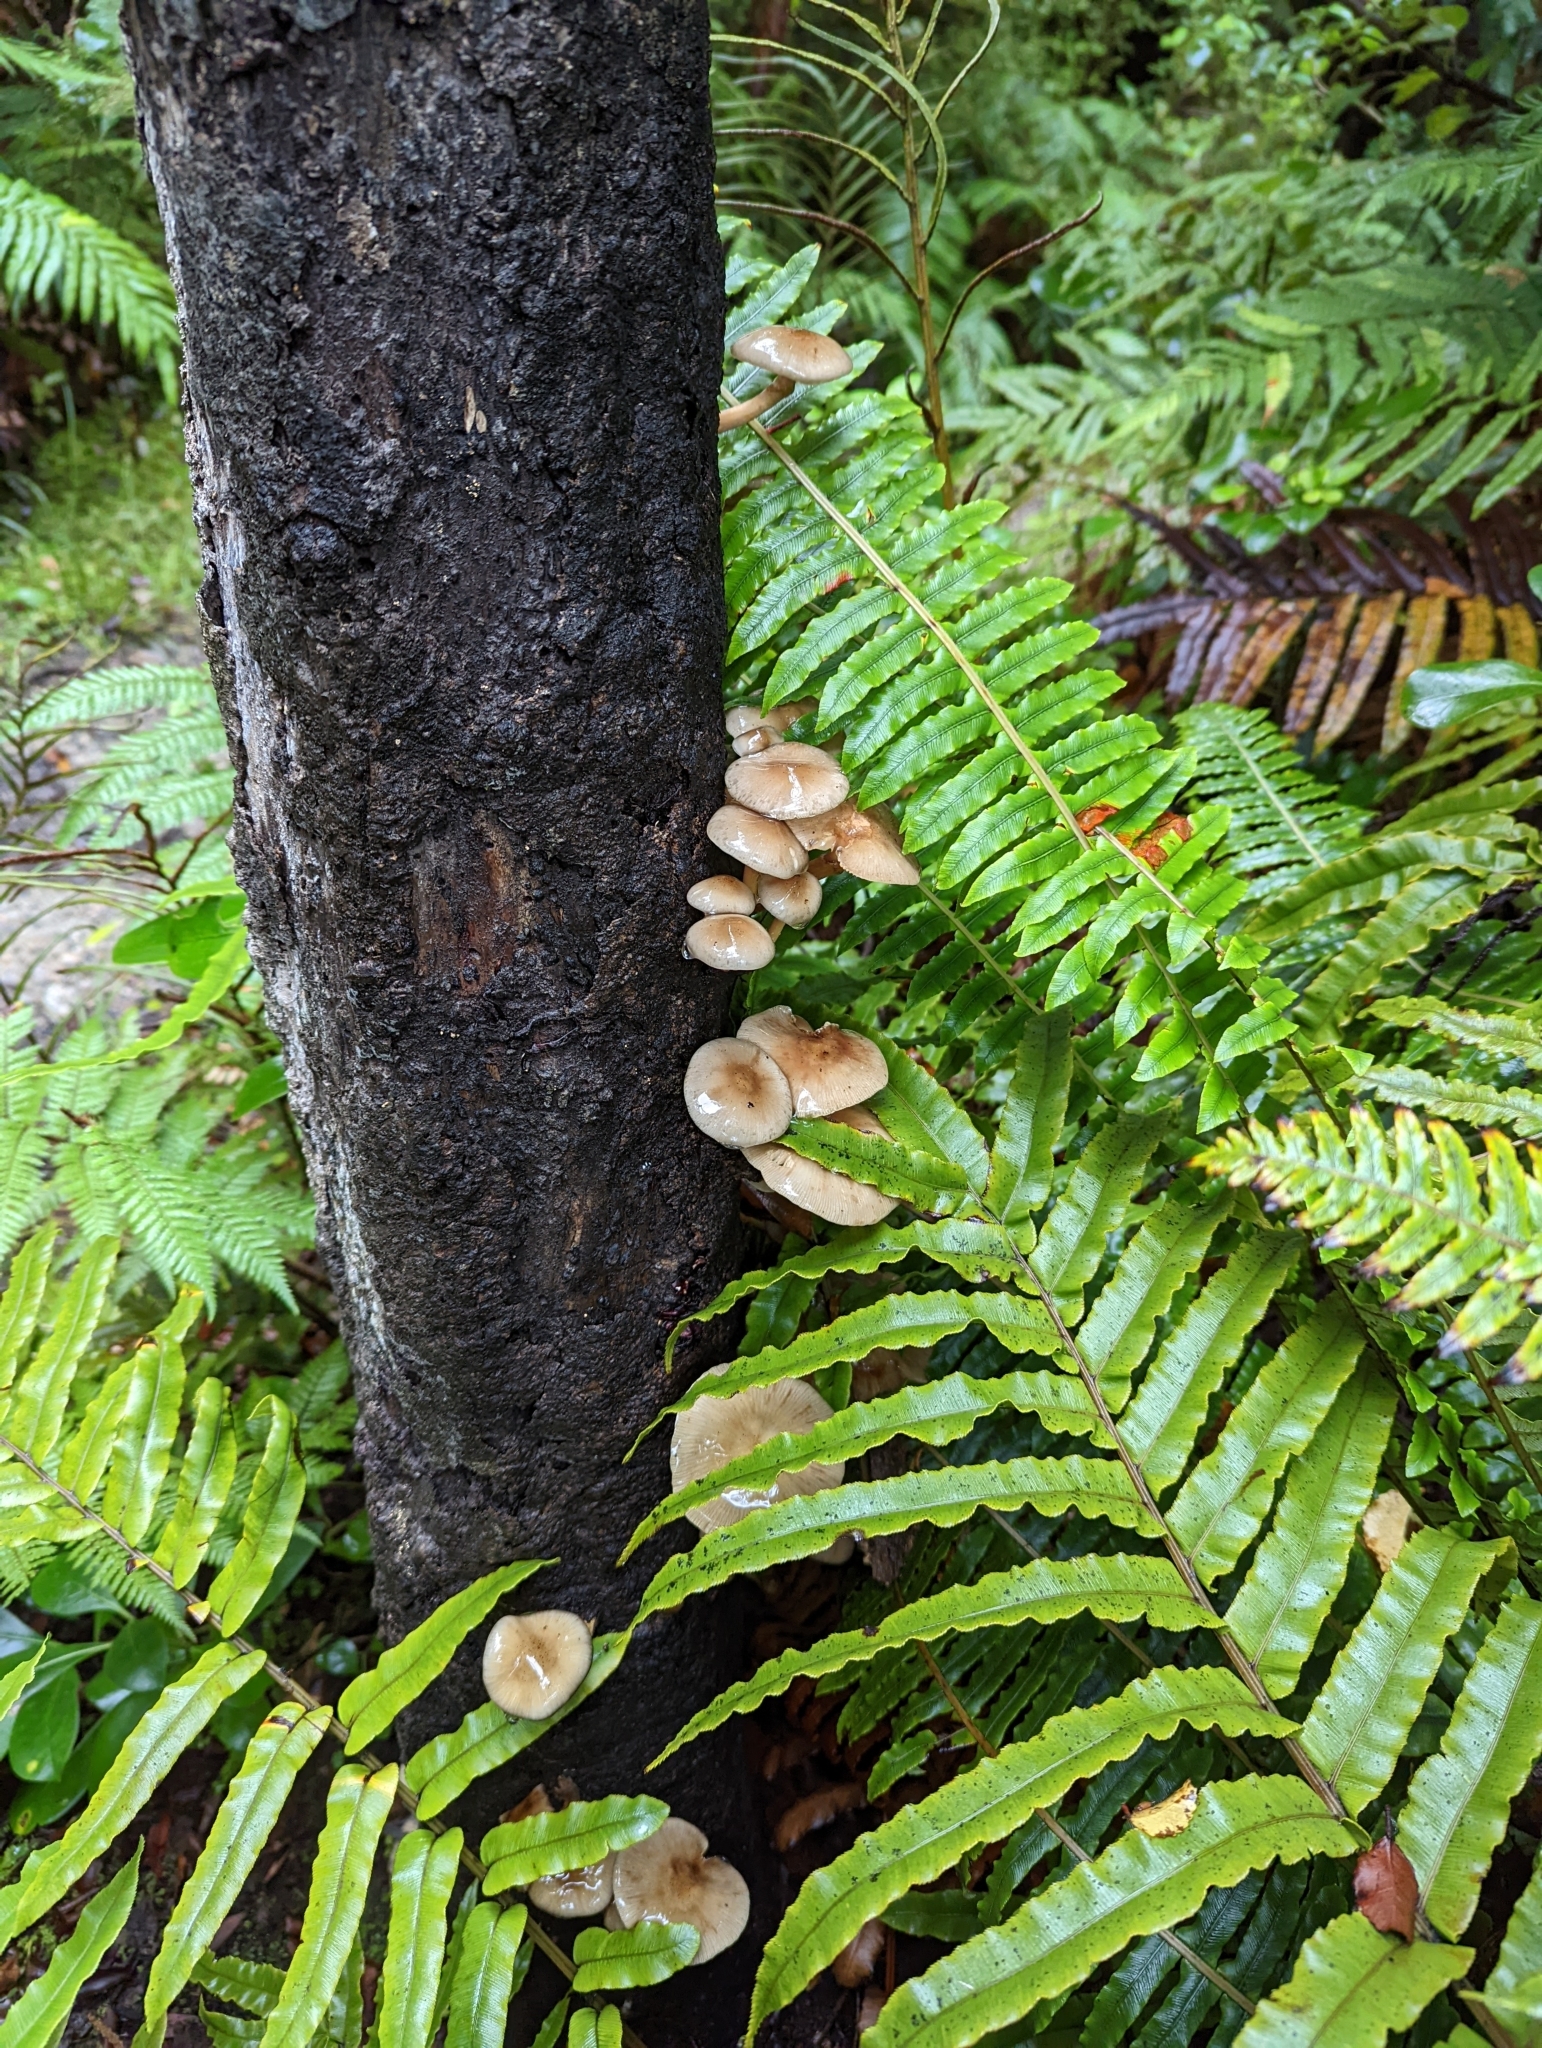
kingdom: Fungi
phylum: Basidiomycota
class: Agaricomycetes
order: Agaricales
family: Physalacriaceae
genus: Armillaria
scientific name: Armillaria novae-zelandiae
